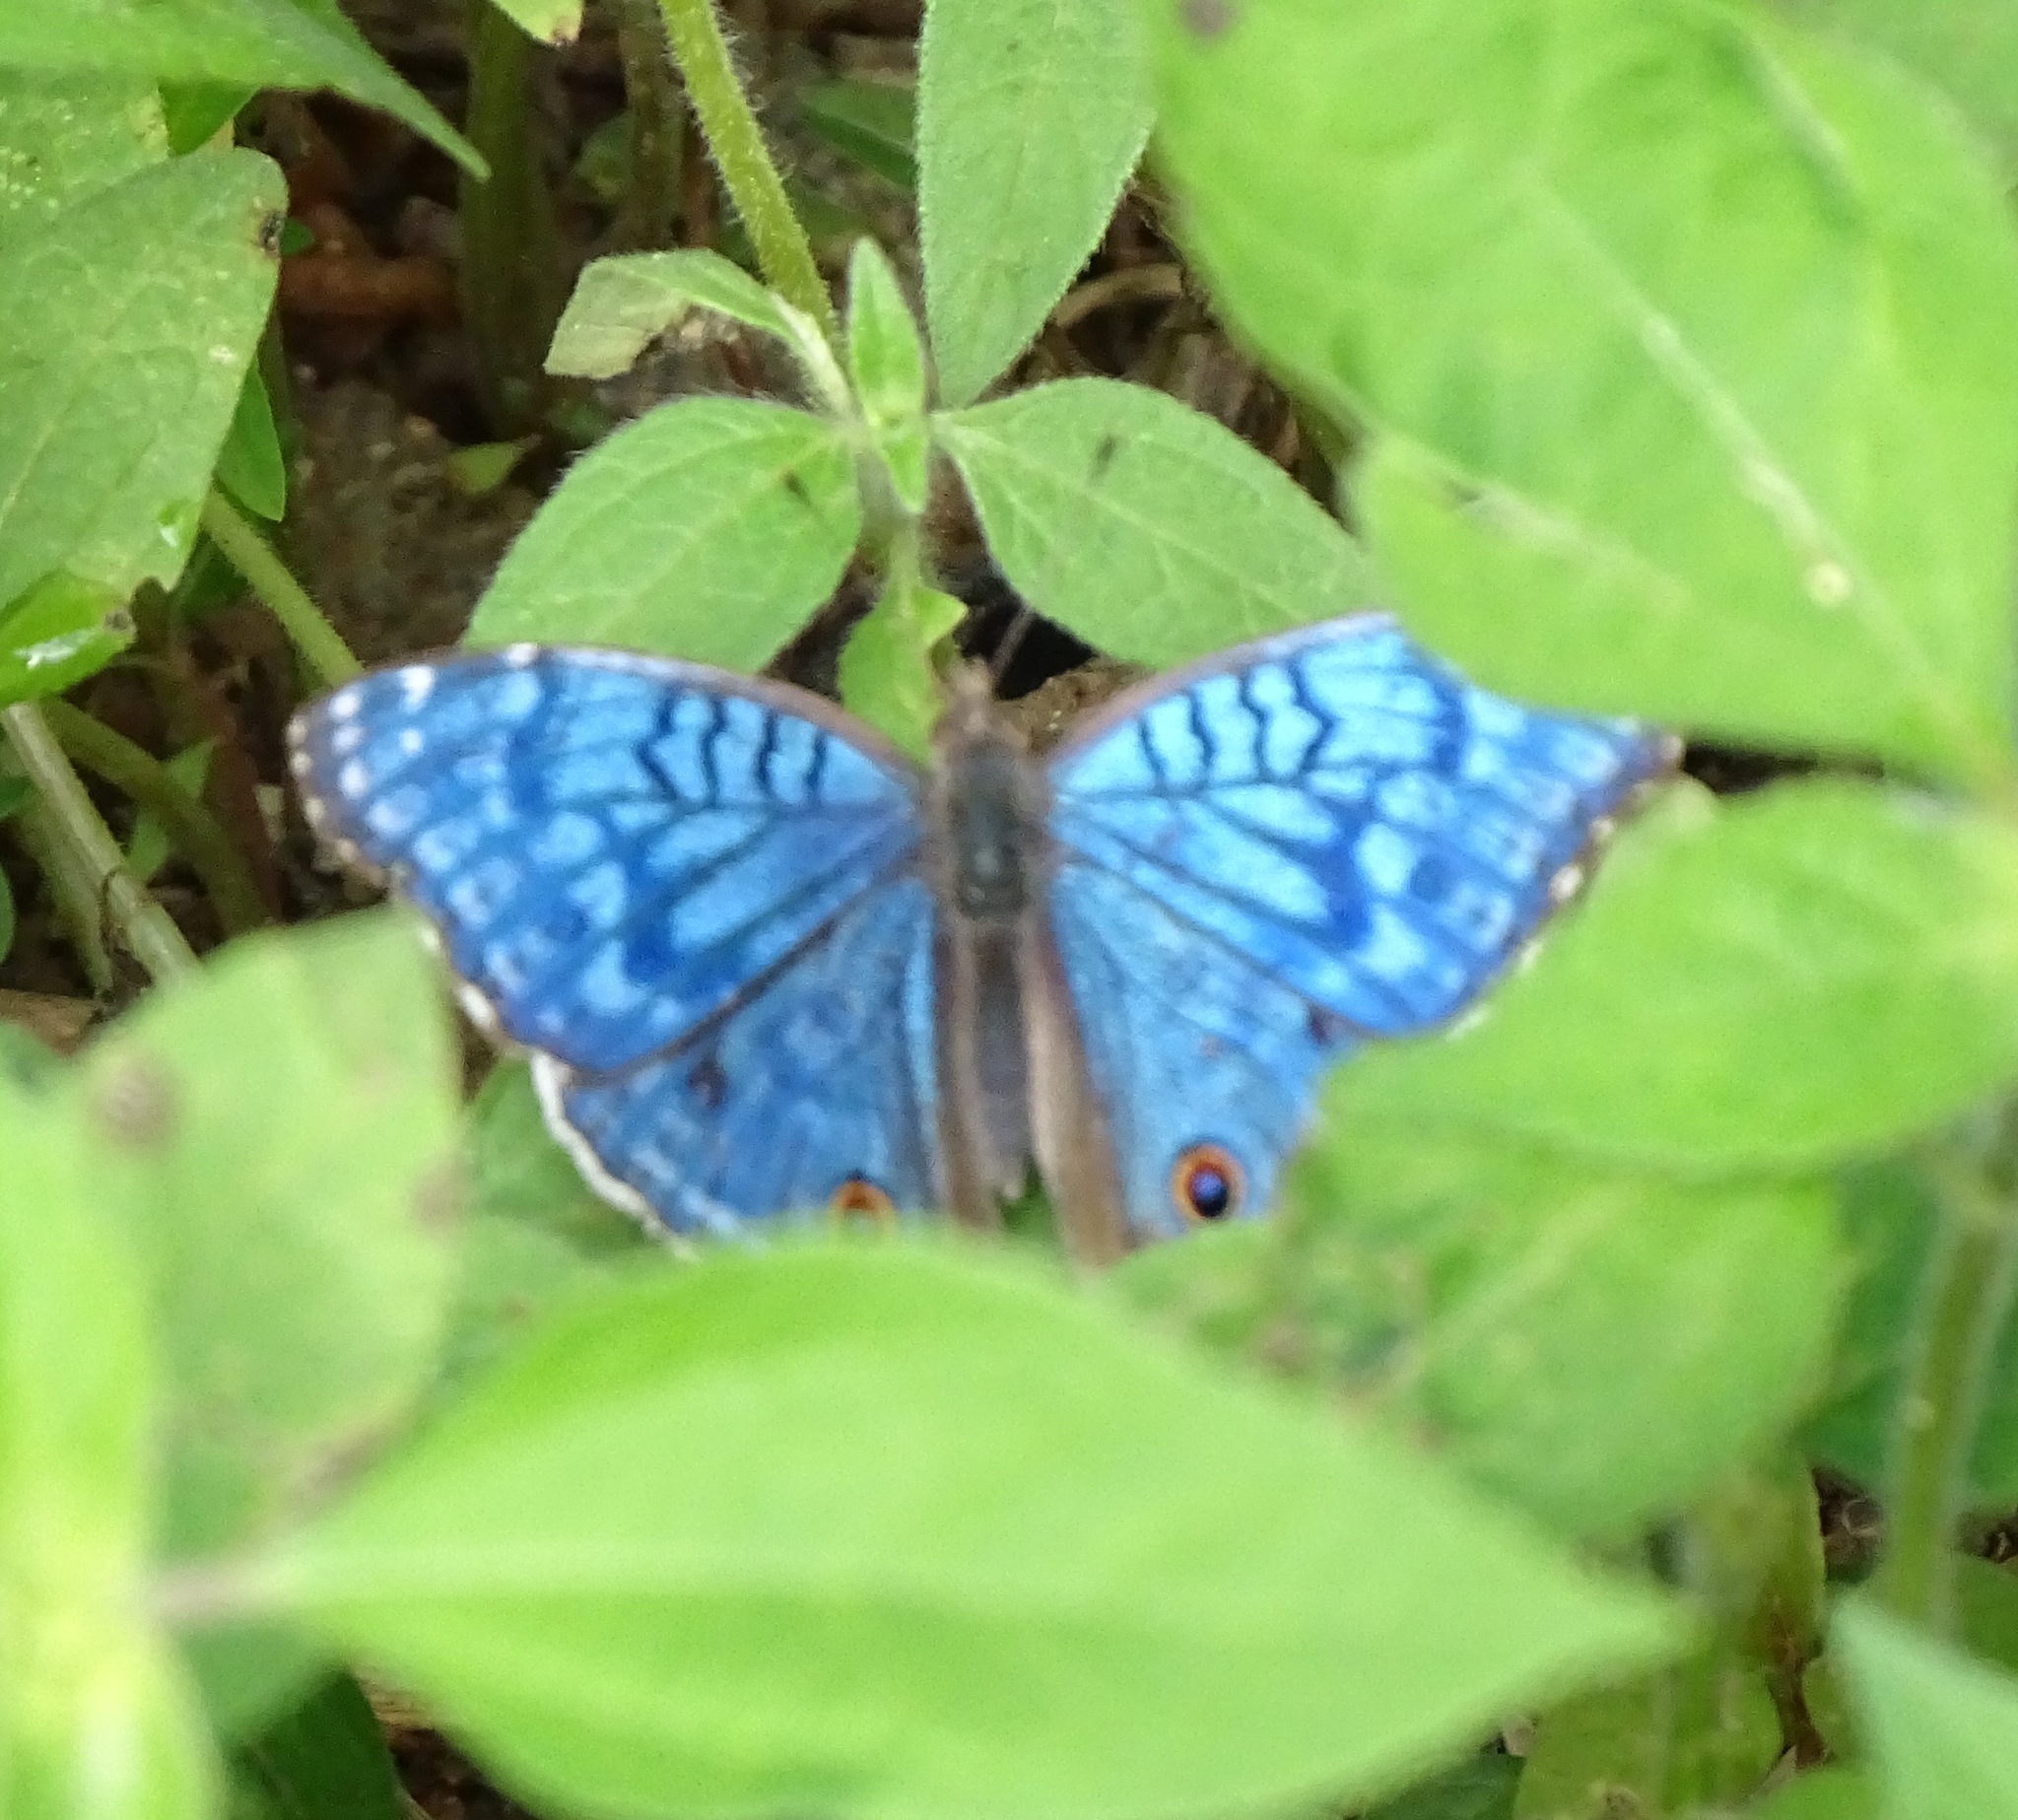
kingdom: Animalia
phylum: Arthropoda
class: Insecta
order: Lepidoptera
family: Nymphalidae
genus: Junonia
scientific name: Junonia rhadama
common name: Royal blue pansy
